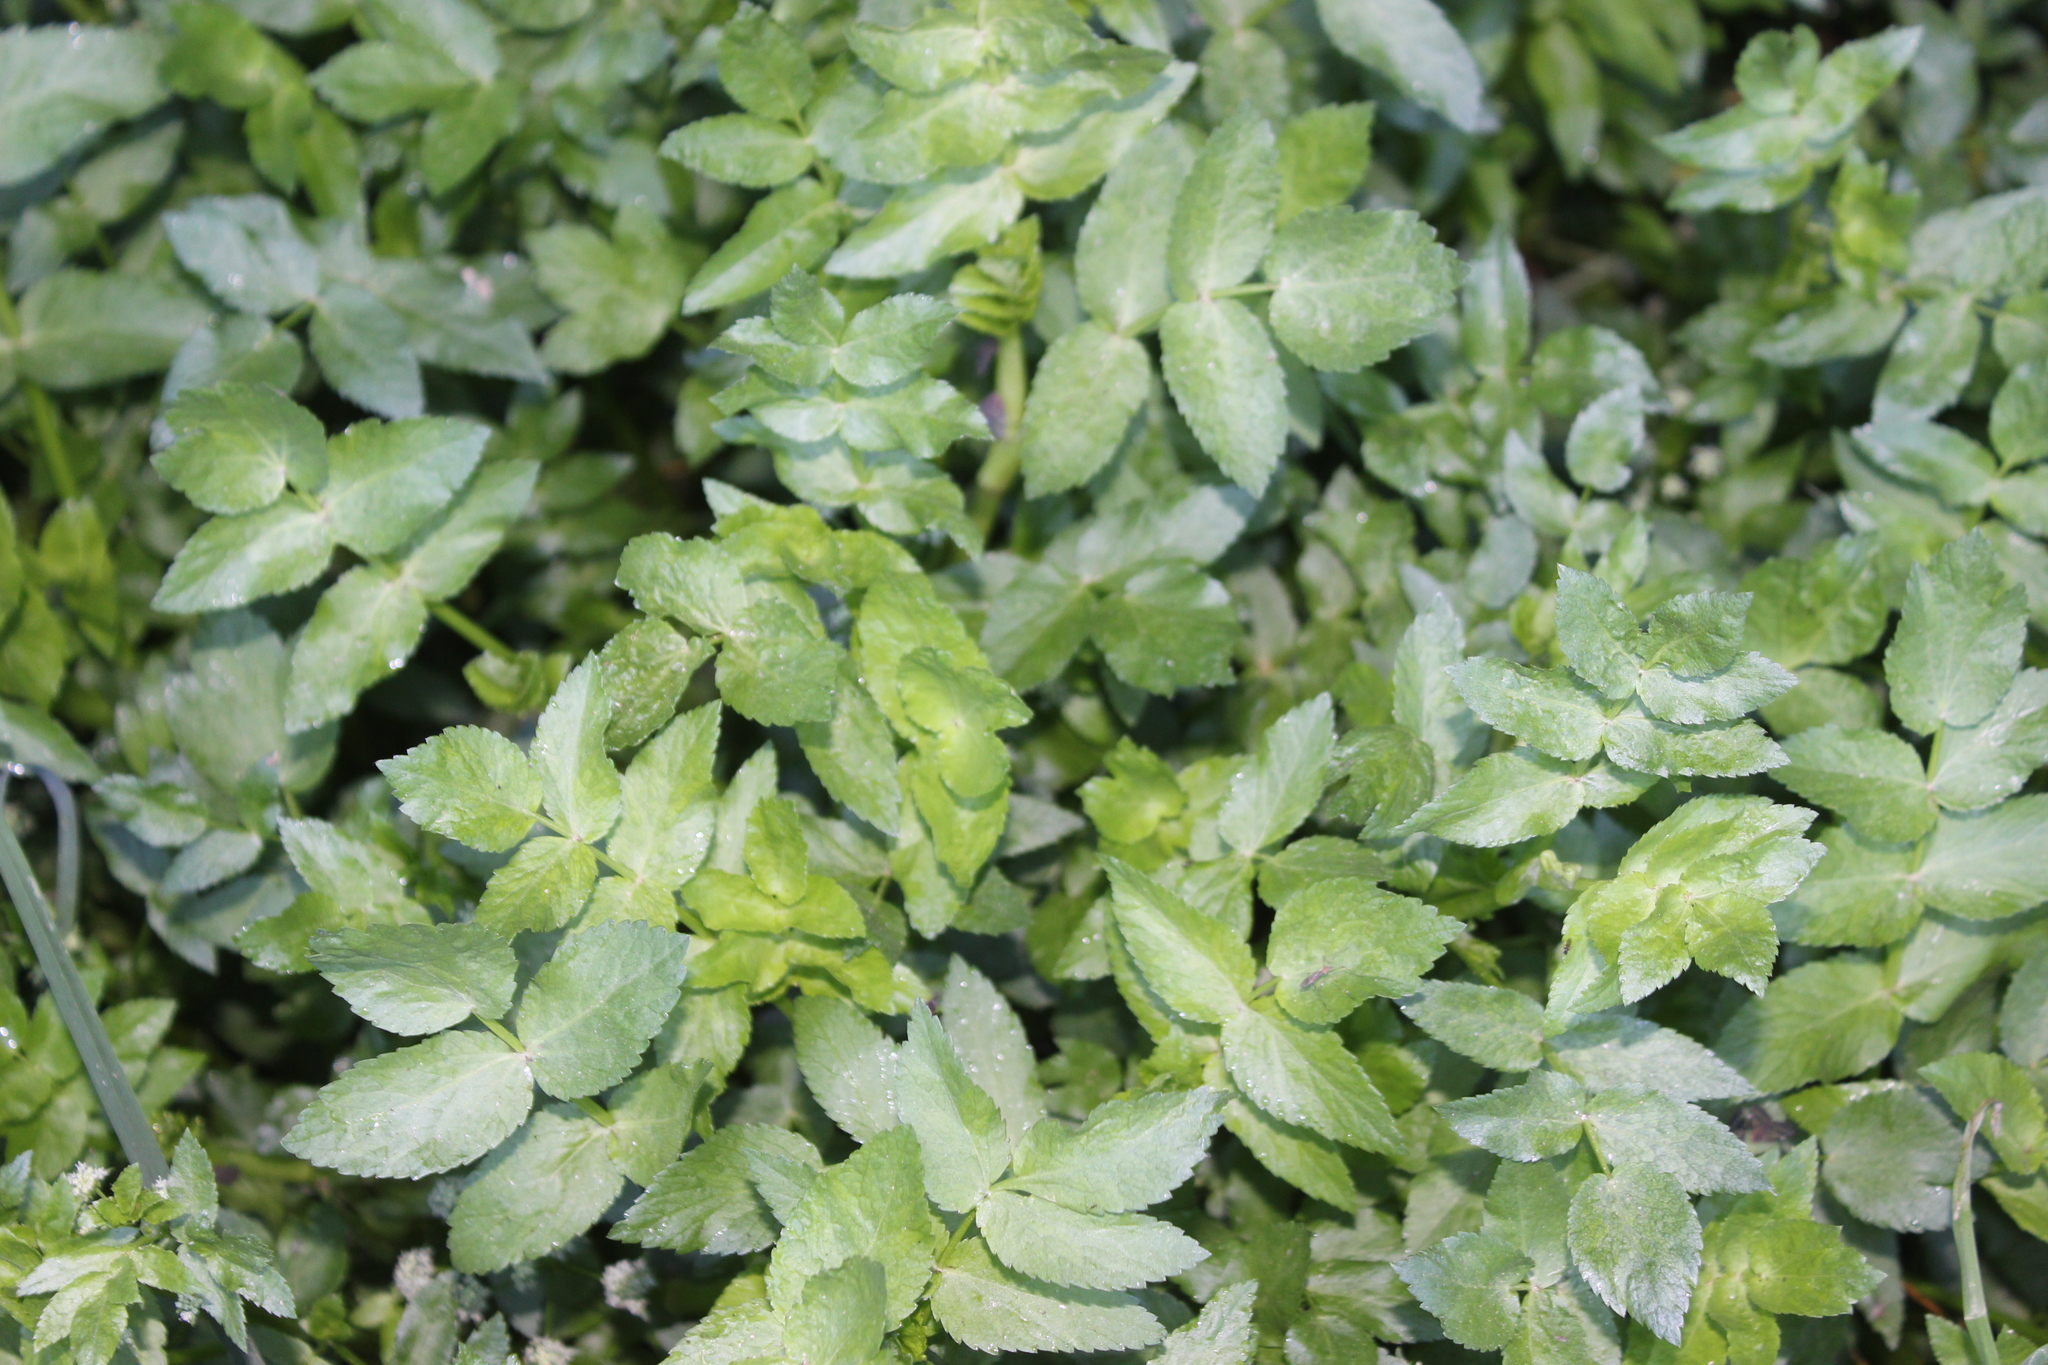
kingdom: Plantae
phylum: Tracheophyta
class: Magnoliopsida
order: Apiales
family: Apiaceae
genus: Helosciadium
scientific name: Helosciadium nodiflorum
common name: Fool's-watercress
